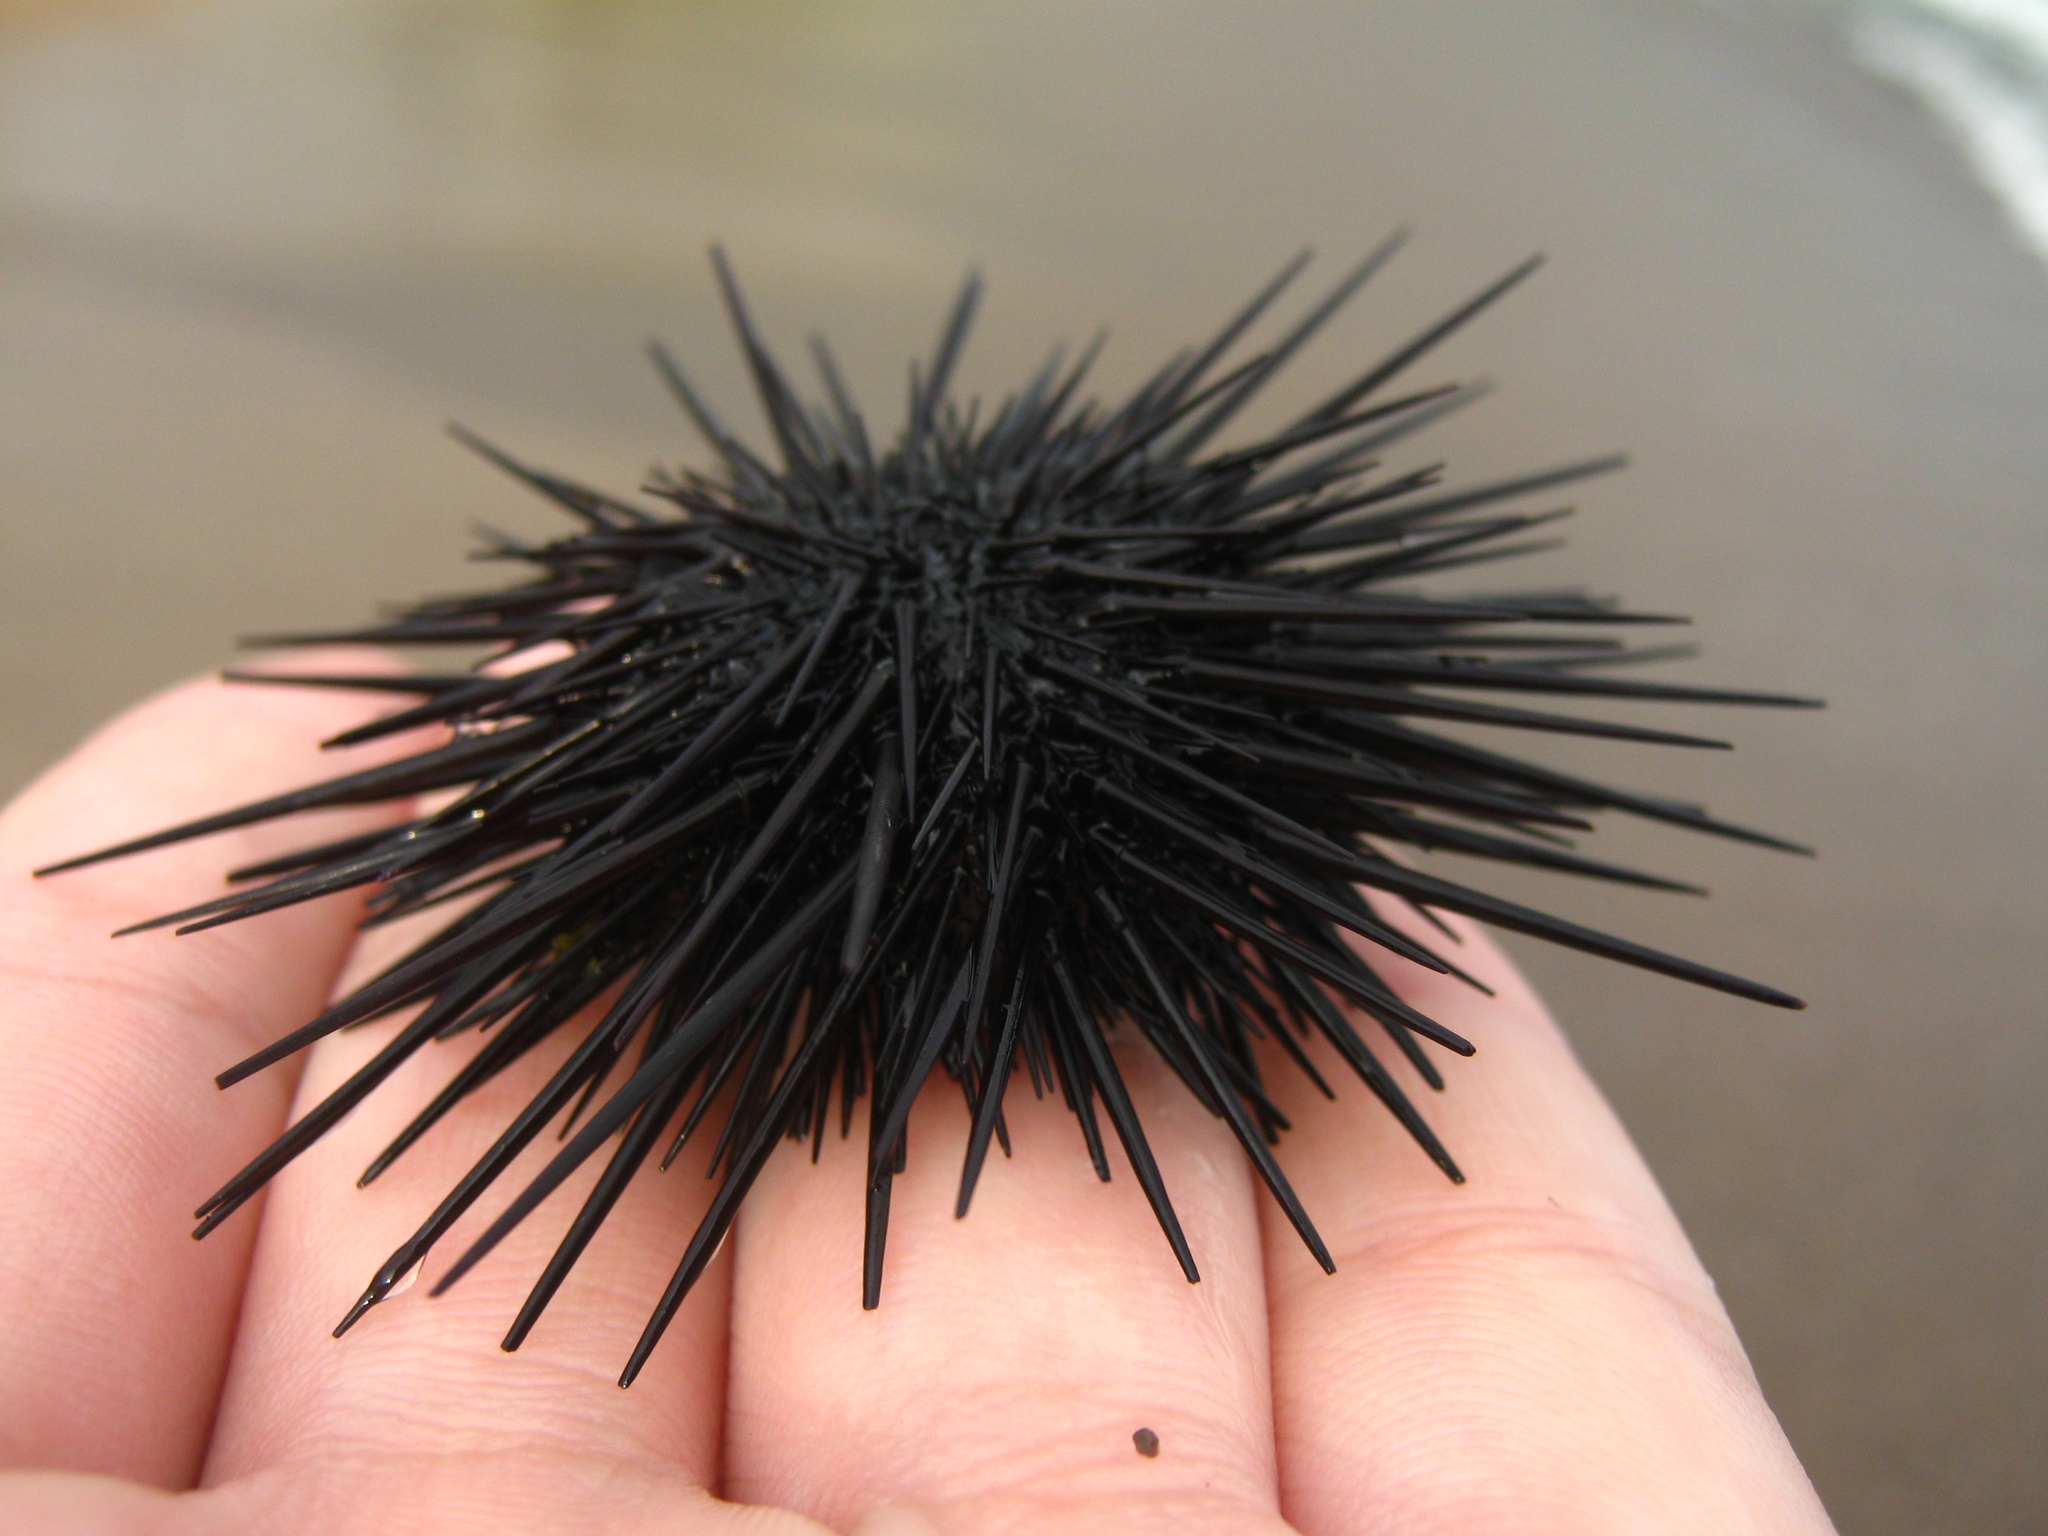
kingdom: Animalia
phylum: Echinodermata
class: Echinoidea
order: Camarodonta
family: Echinometridae
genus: Echinometra
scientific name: Echinometra vanbrunti
